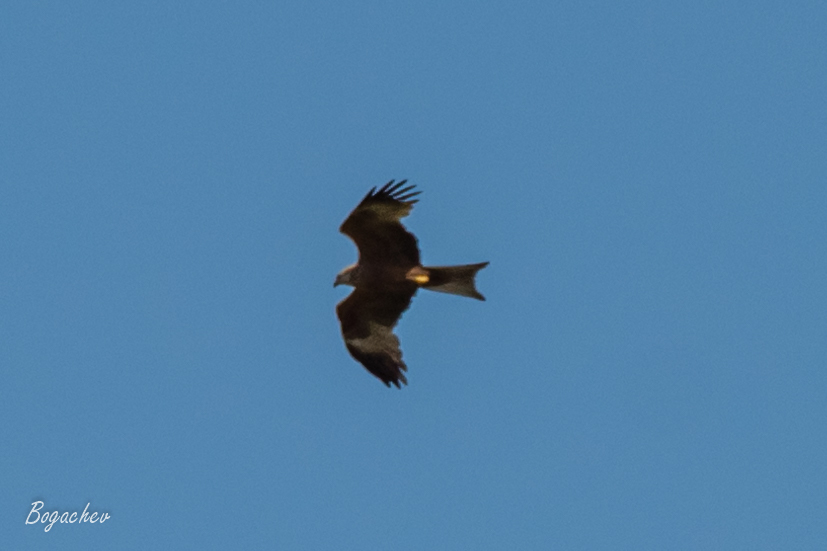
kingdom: Animalia
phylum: Chordata
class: Aves
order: Accipitriformes
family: Accipitridae
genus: Milvus
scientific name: Milvus migrans
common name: Black kite
